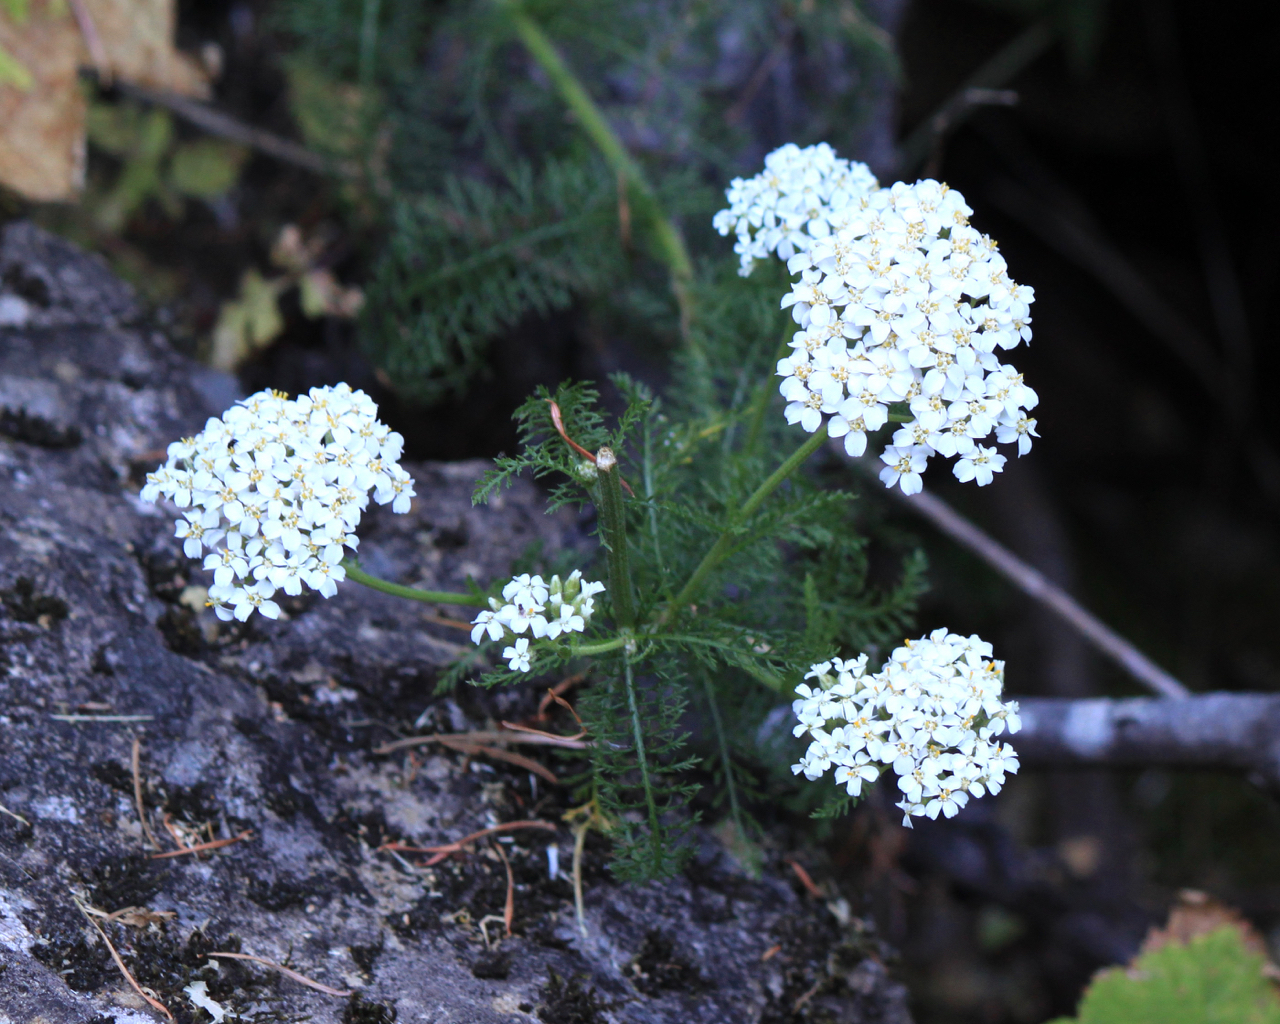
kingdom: Plantae
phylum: Tracheophyta
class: Magnoliopsida
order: Asterales
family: Asteraceae
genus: Achillea
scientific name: Achillea millefolium
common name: Yarrow
